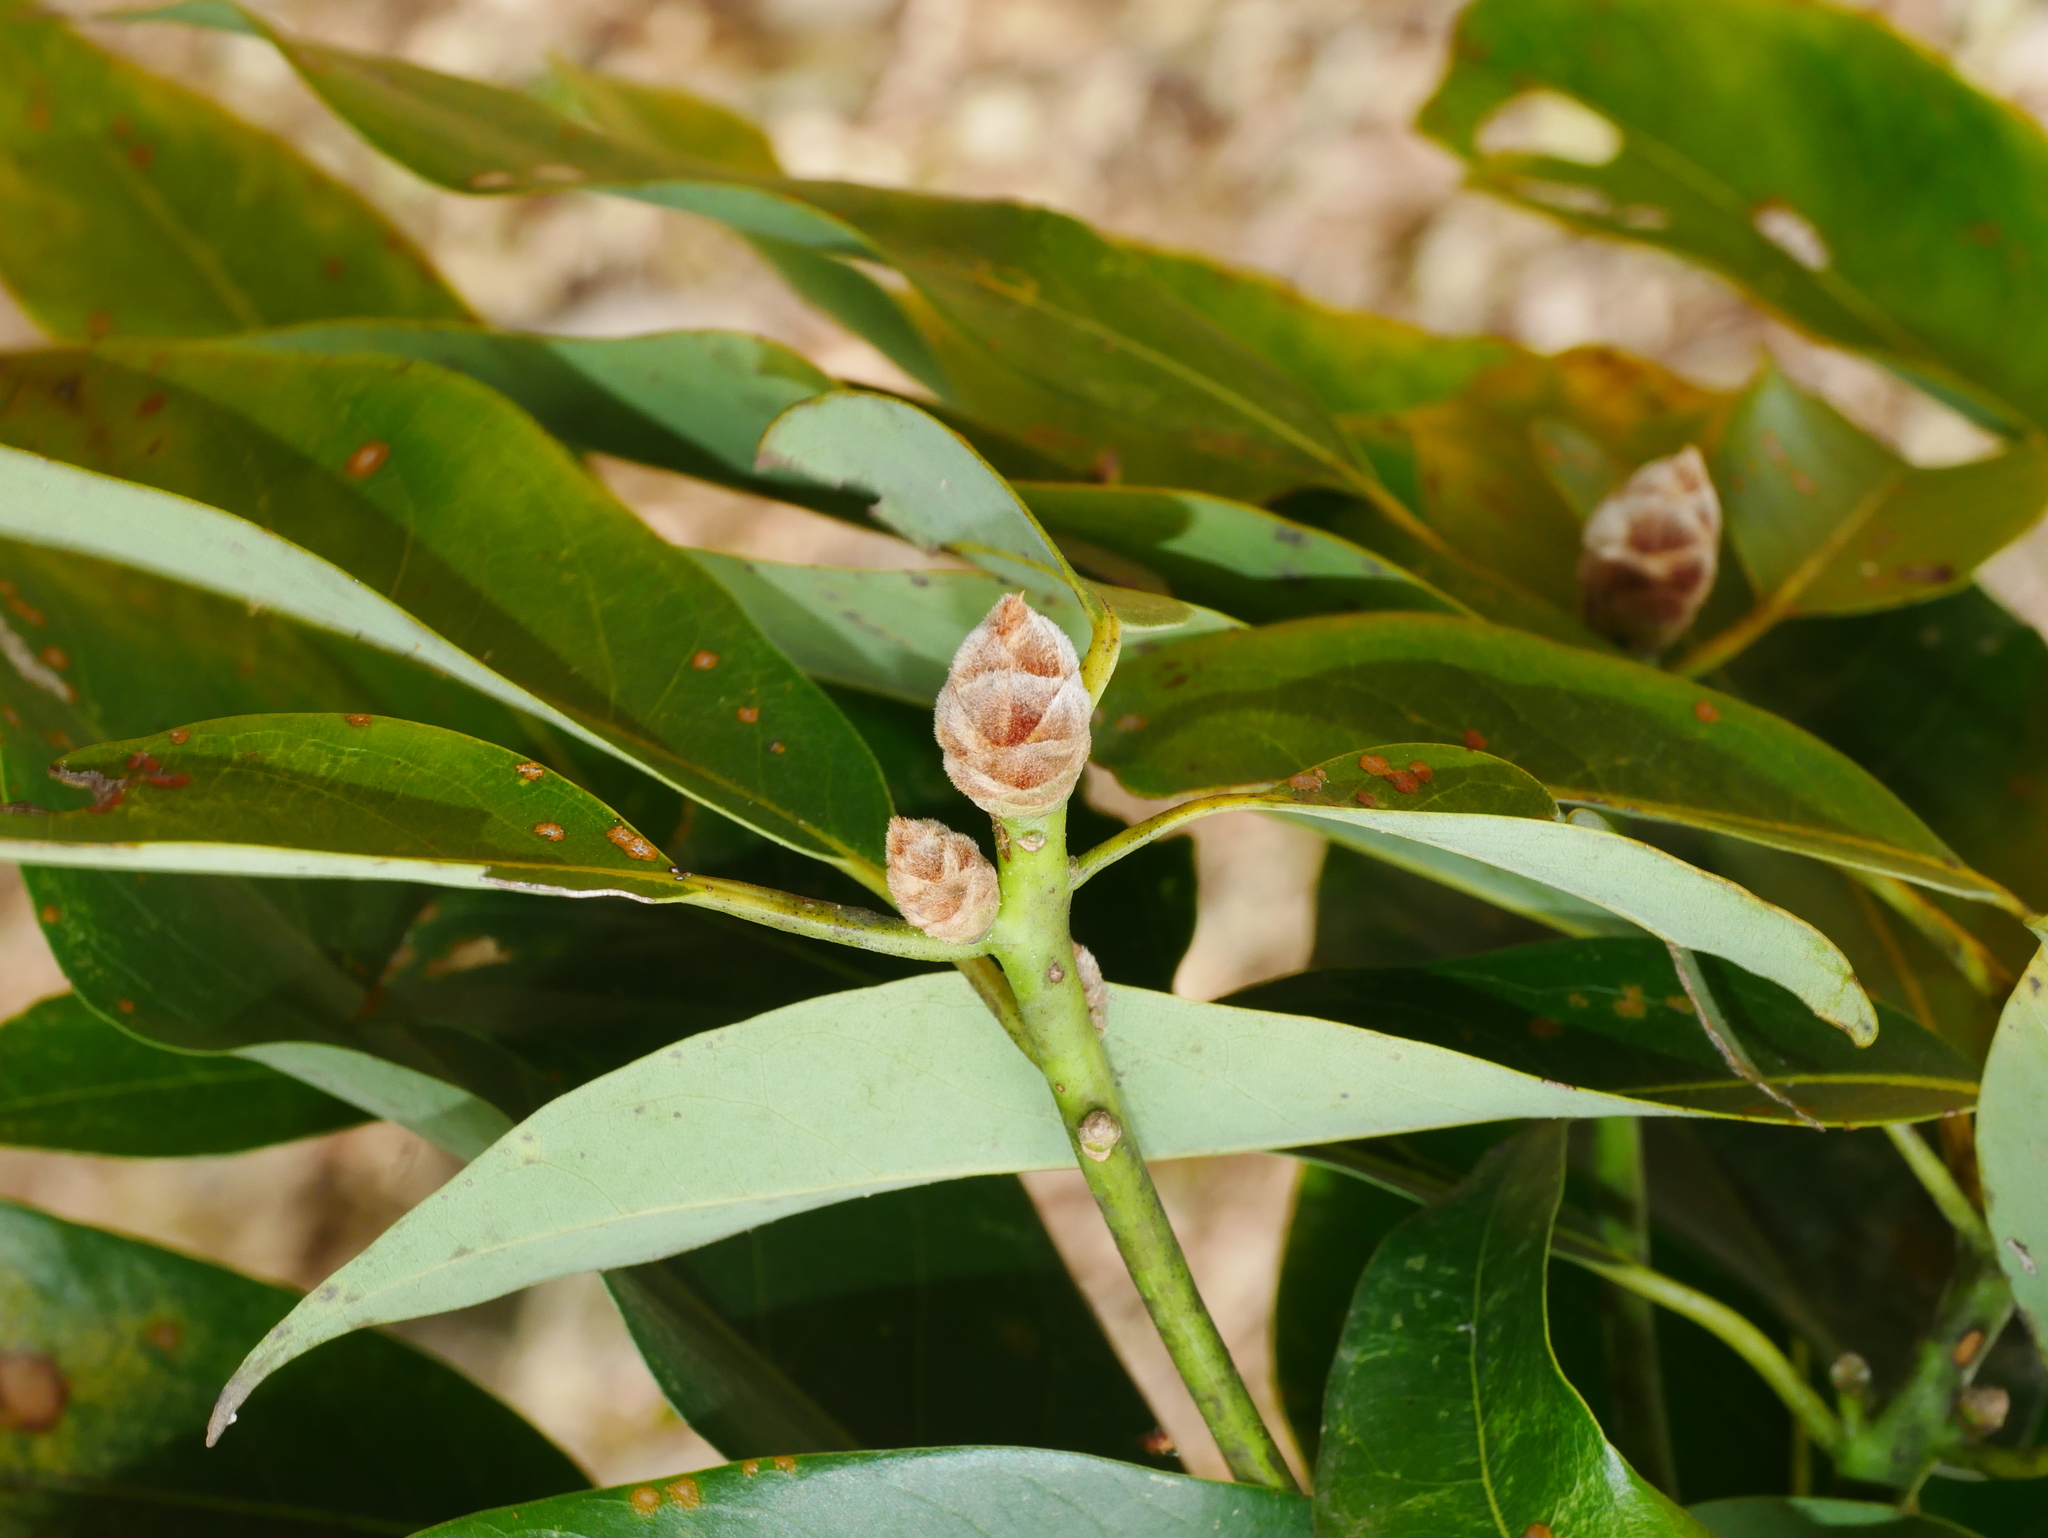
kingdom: Plantae
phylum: Tracheophyta
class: Magnoliopsida
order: Laurales
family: Lauraceae
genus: Machilus
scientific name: Machilus zuihoensis
